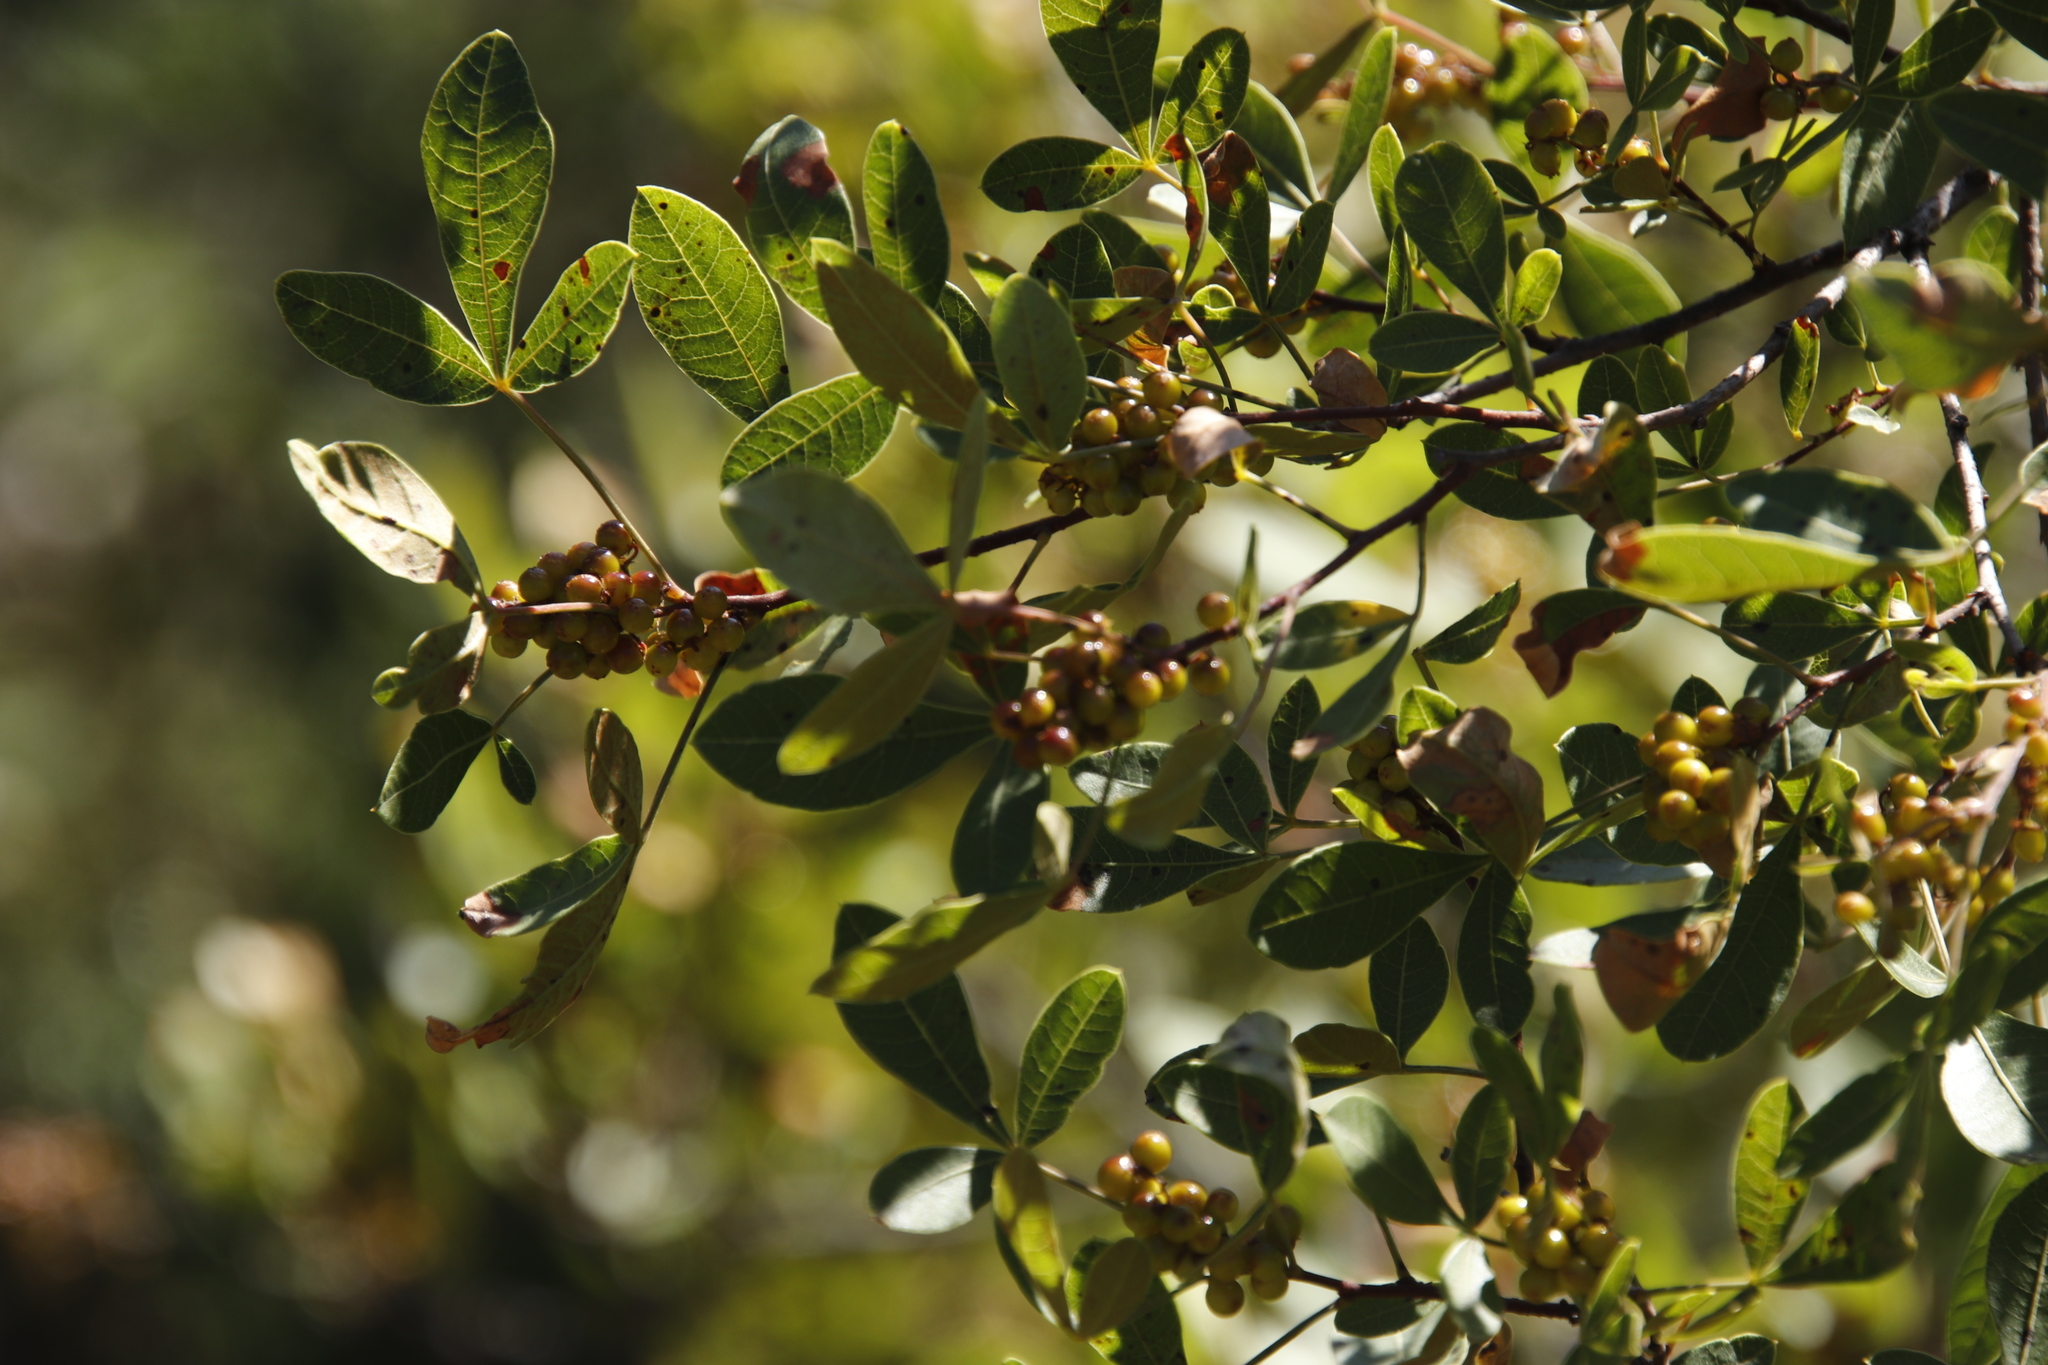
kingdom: Plantae
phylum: Tracheophyta
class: Magnoliopsida
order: Sapindales
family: Anacardiaceae
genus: Searsia
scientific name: Searsia divaricata
